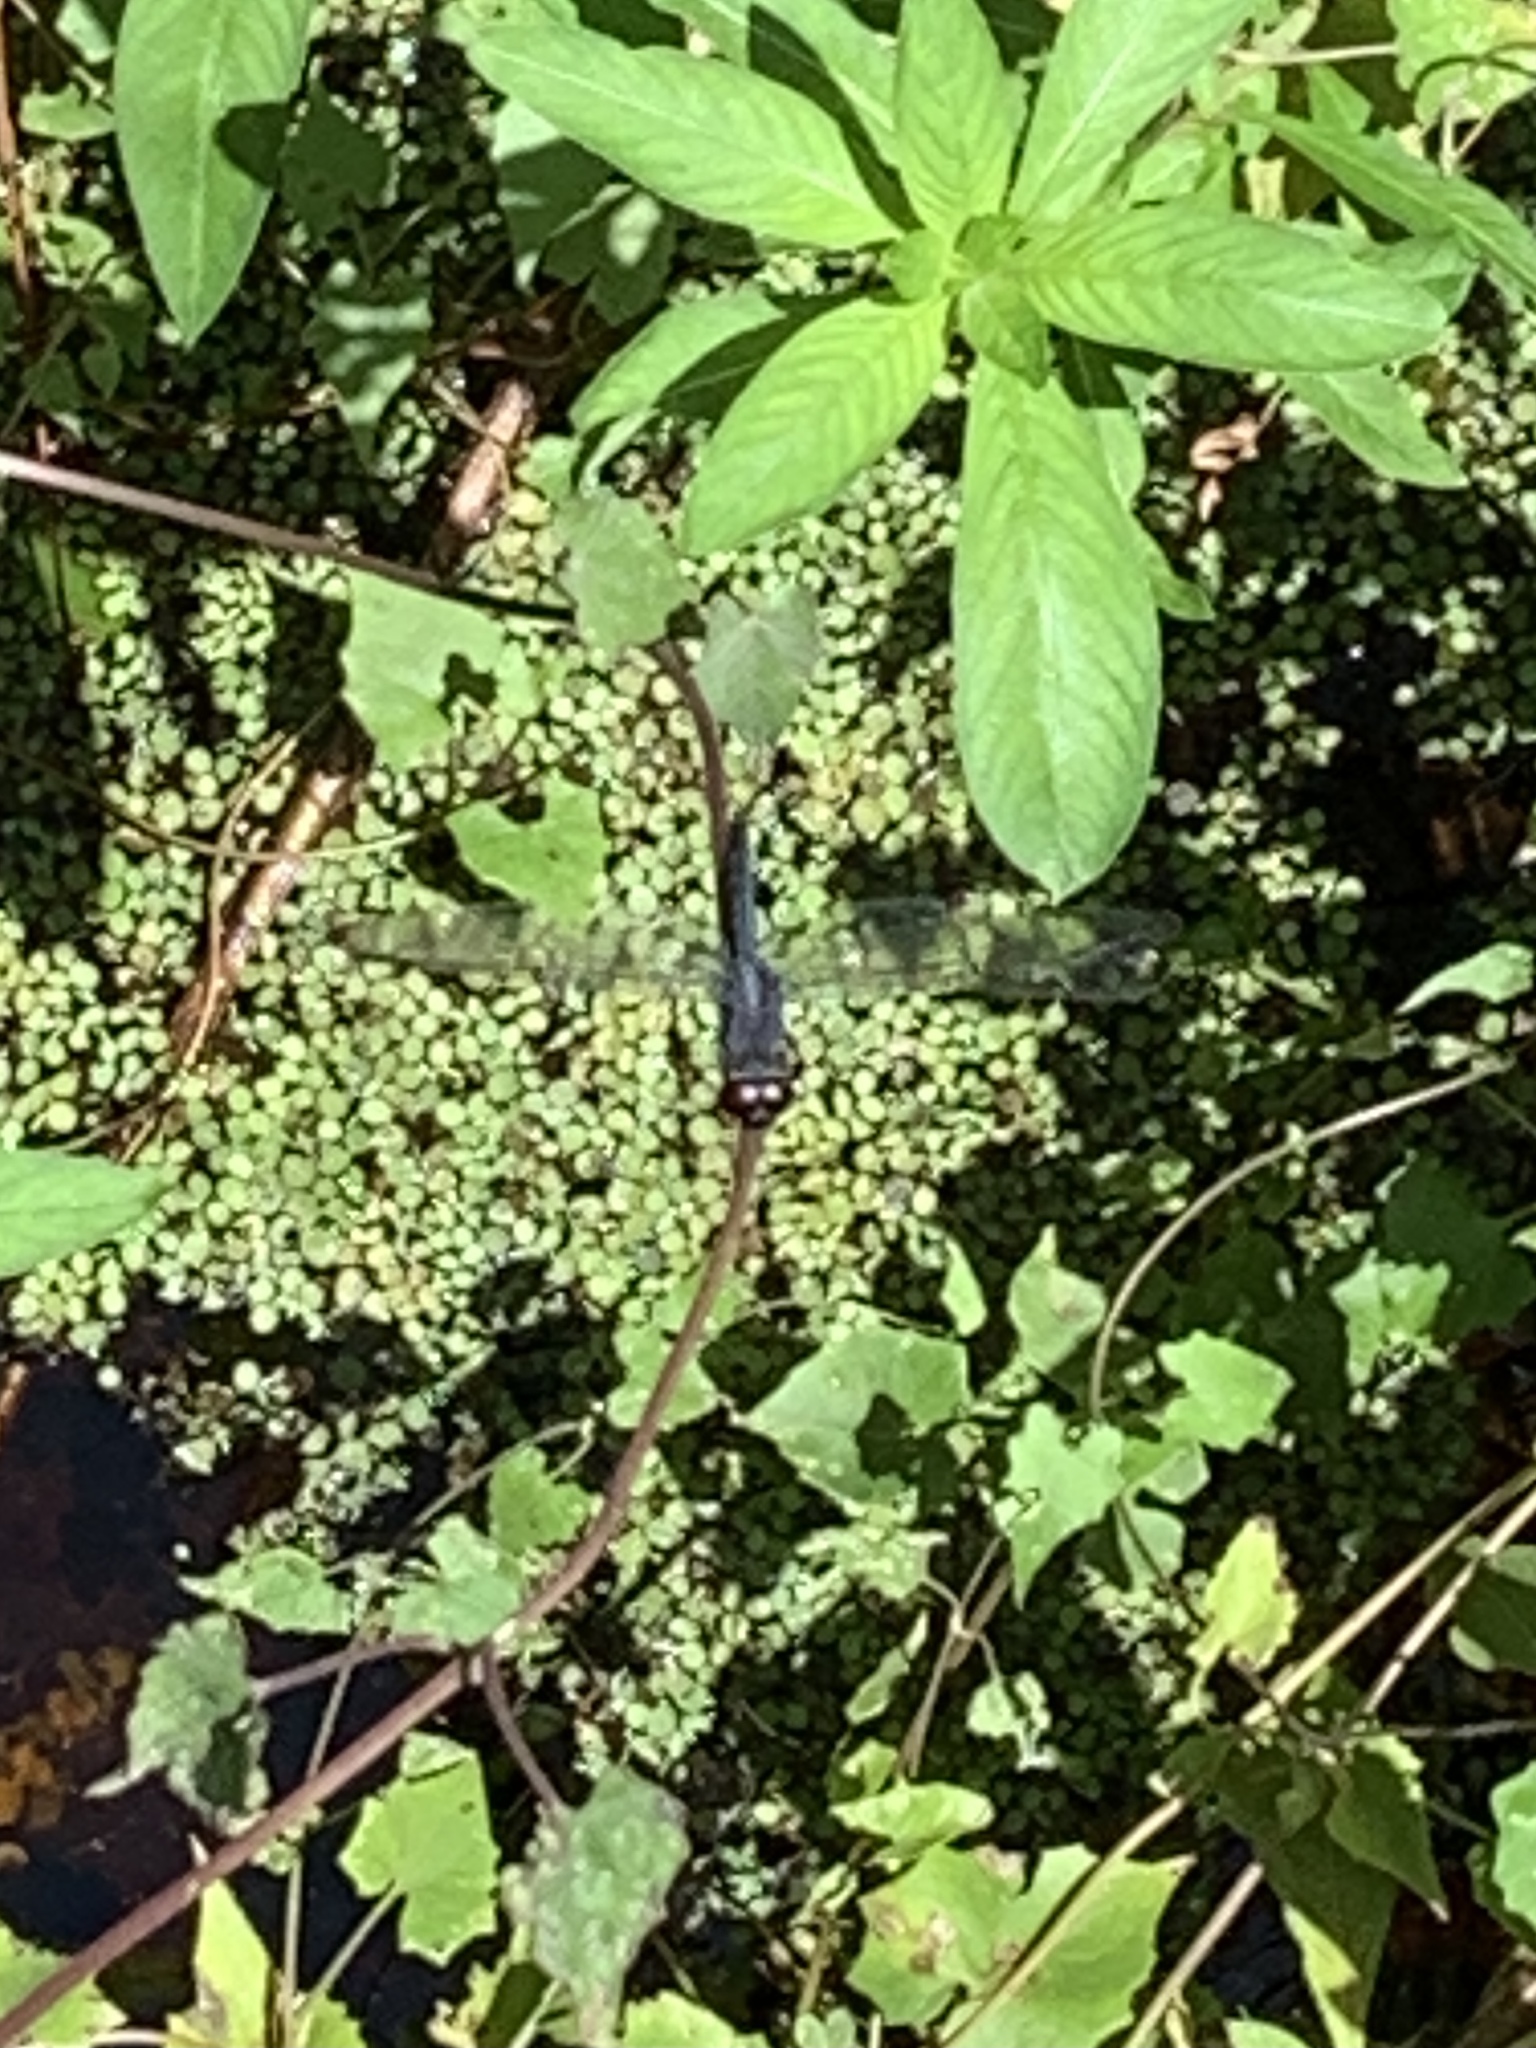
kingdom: Animalia
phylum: Arthropoda
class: Insecta
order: Odonata
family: Libellulidae
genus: Erythemis
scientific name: Erythemis simplicicollis
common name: Eastern pondhawk
